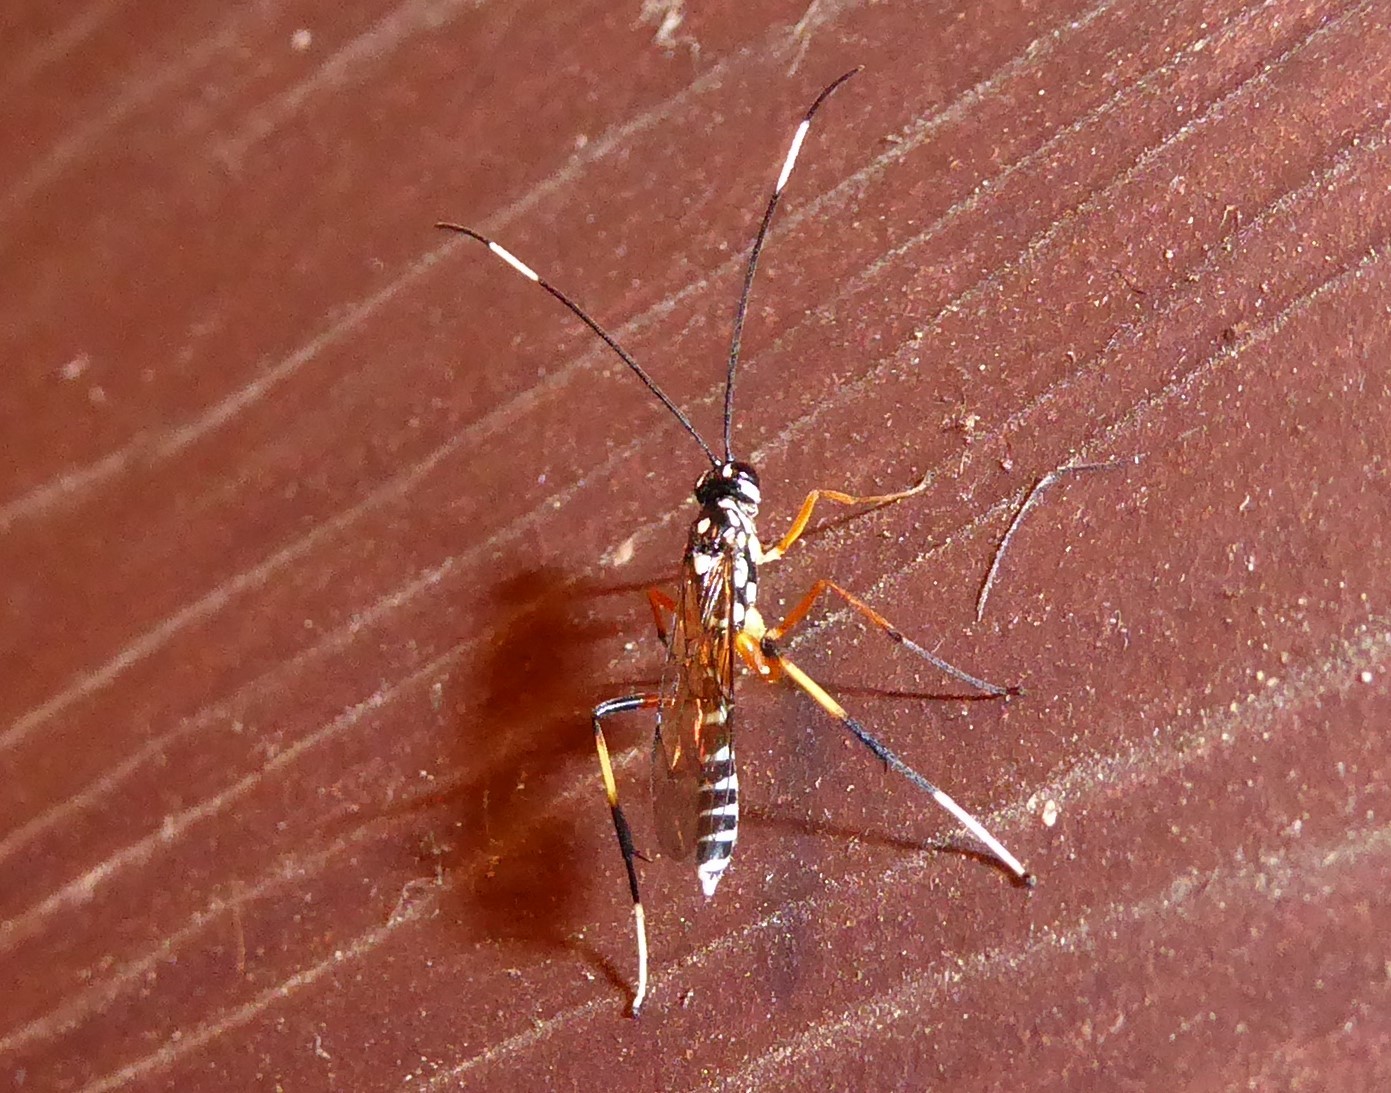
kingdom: Animalia
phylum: Arthropoda
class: Insecta
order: Hymenoptera
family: Ichneumonidae
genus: Xanthocryptus
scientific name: Xanthocryptus novozealandicus
